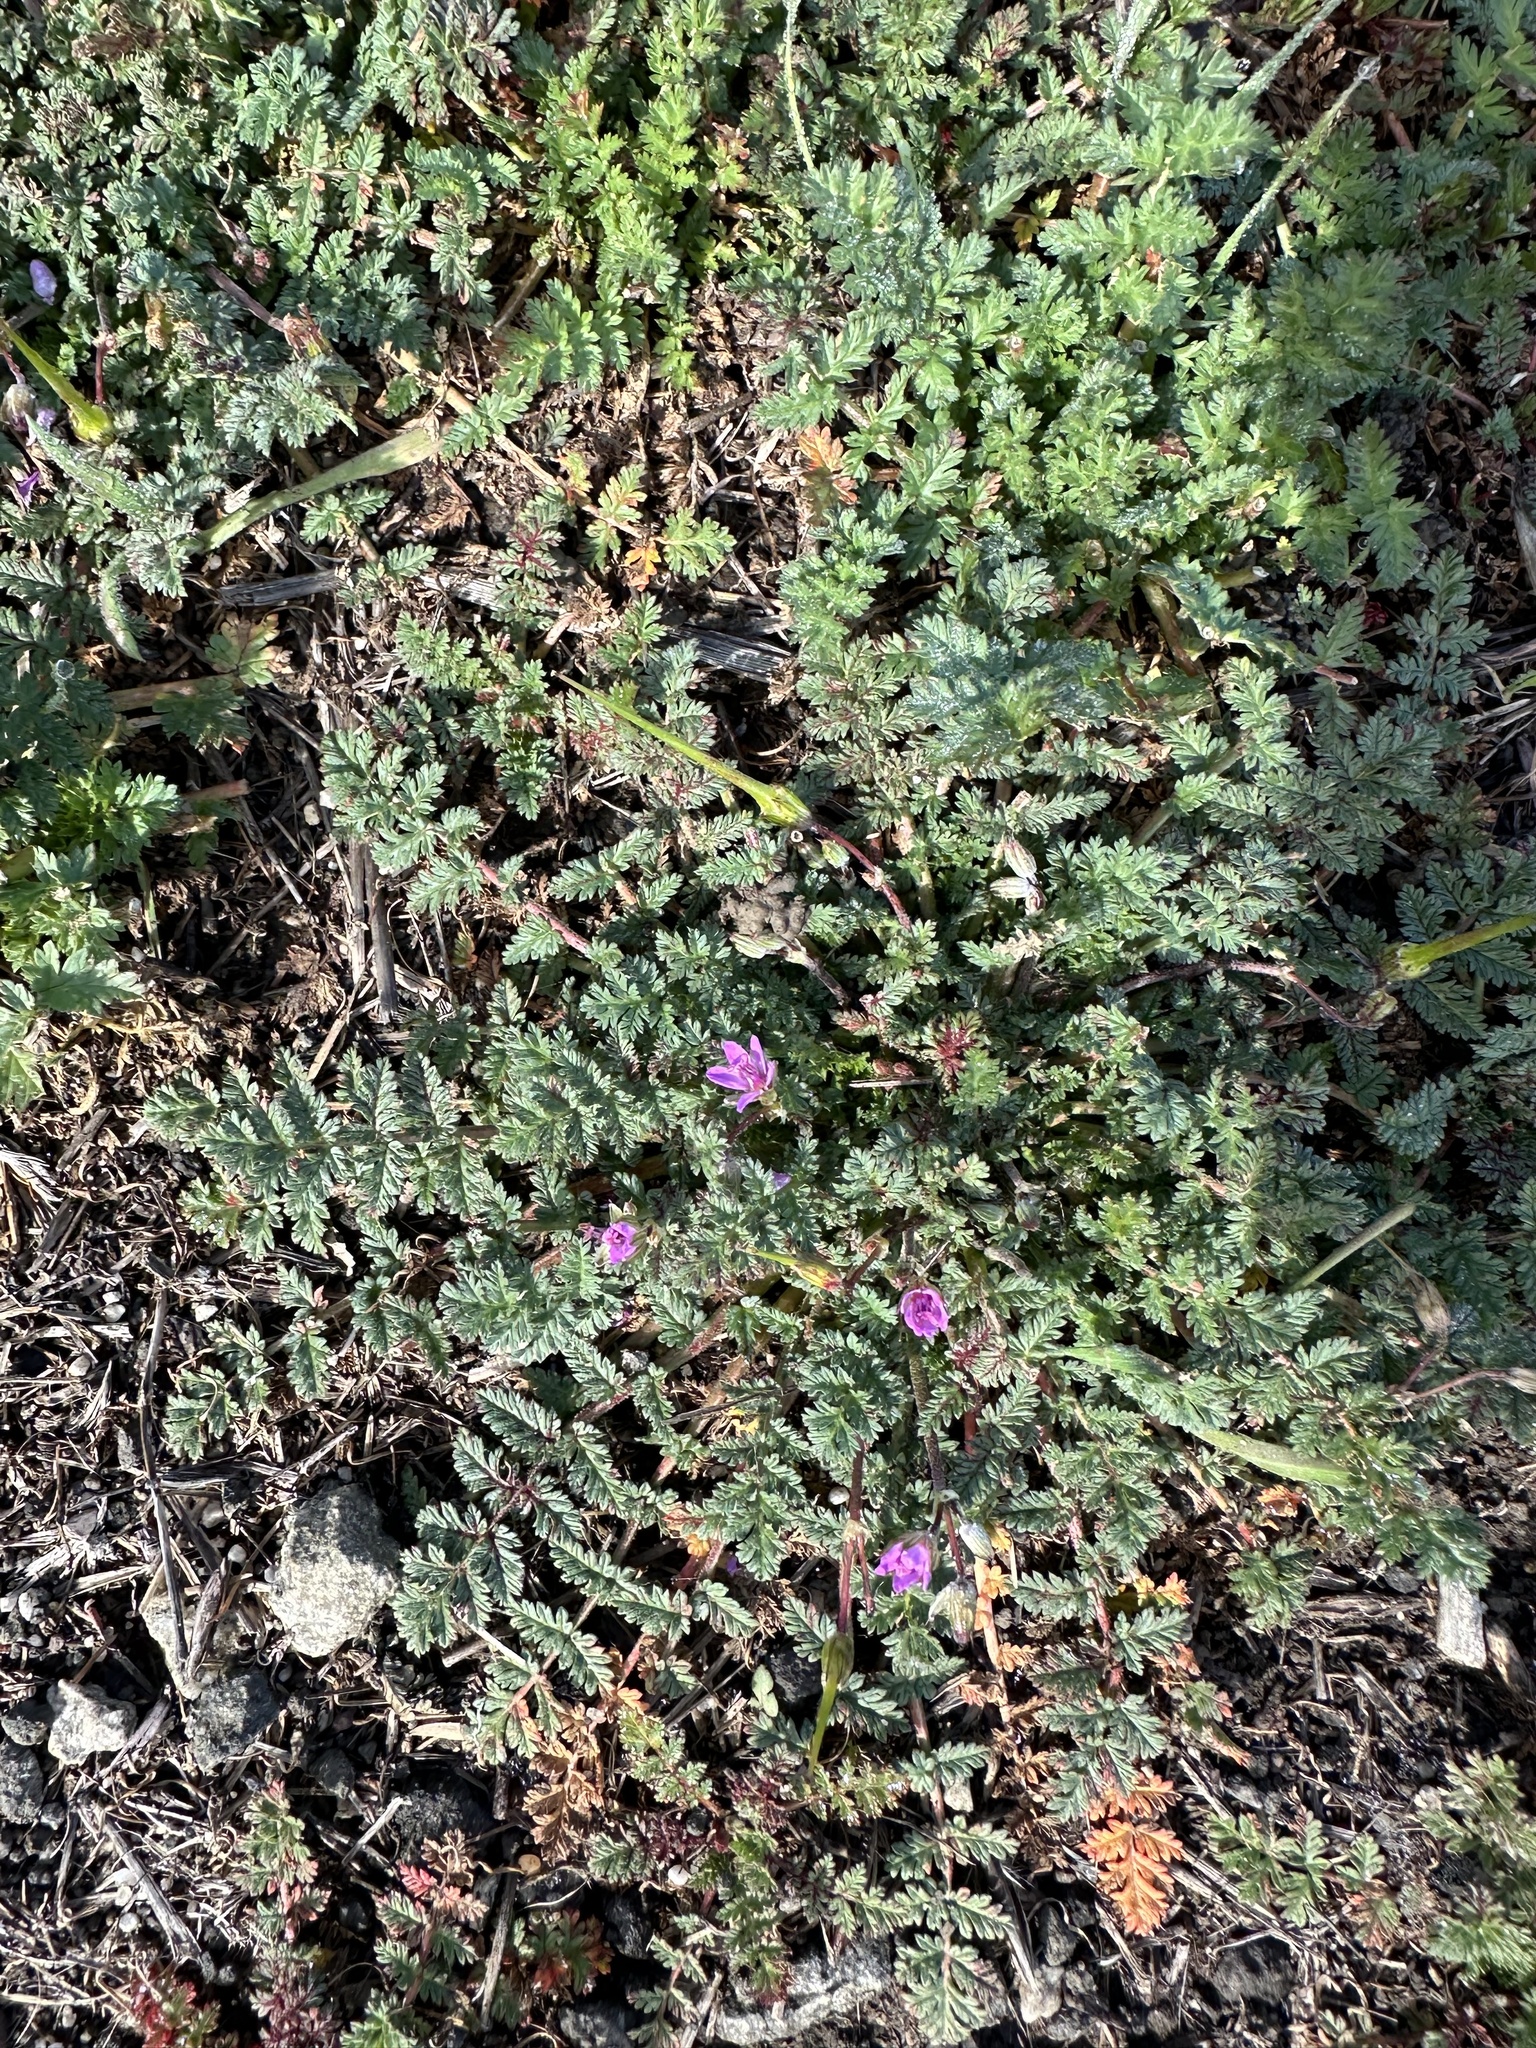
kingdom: Plantae
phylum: Tracheophyta
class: Magnoliopsida
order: Geraniales
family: Geraniaceae
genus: Erodium
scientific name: Erodium cicutarium
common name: Common stork's-bill
